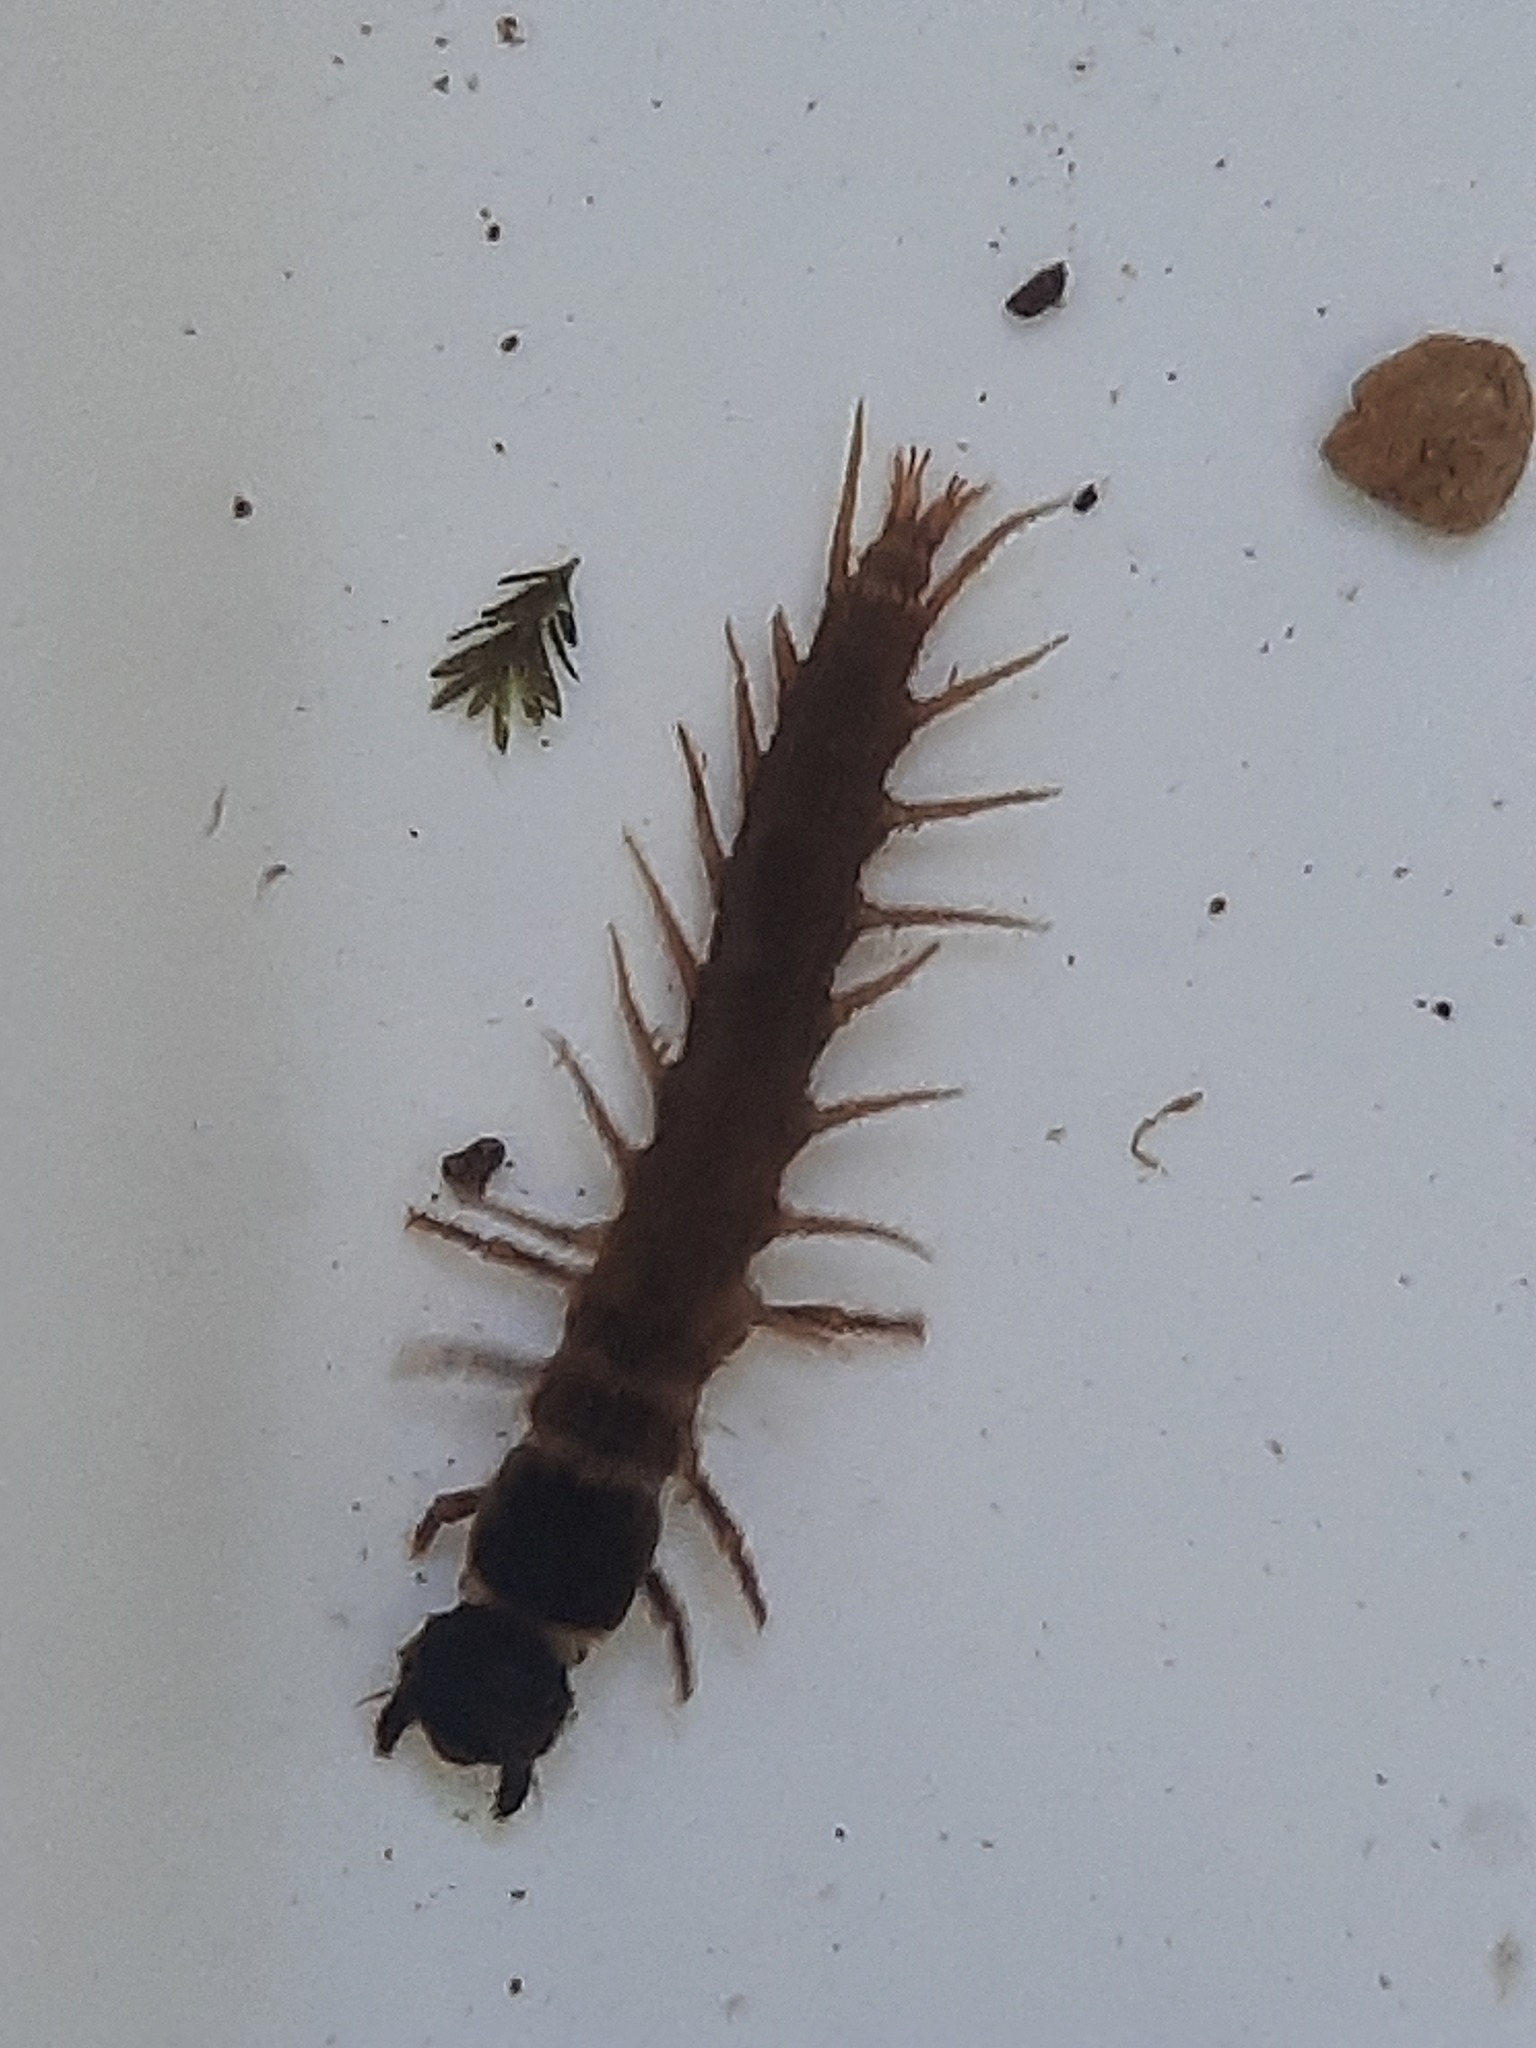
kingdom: Animalia
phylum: Arthropoda
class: Insecta
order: Megaloptera
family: Corydalidae
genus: Archichauliodes
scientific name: Archichauliodes diversus
